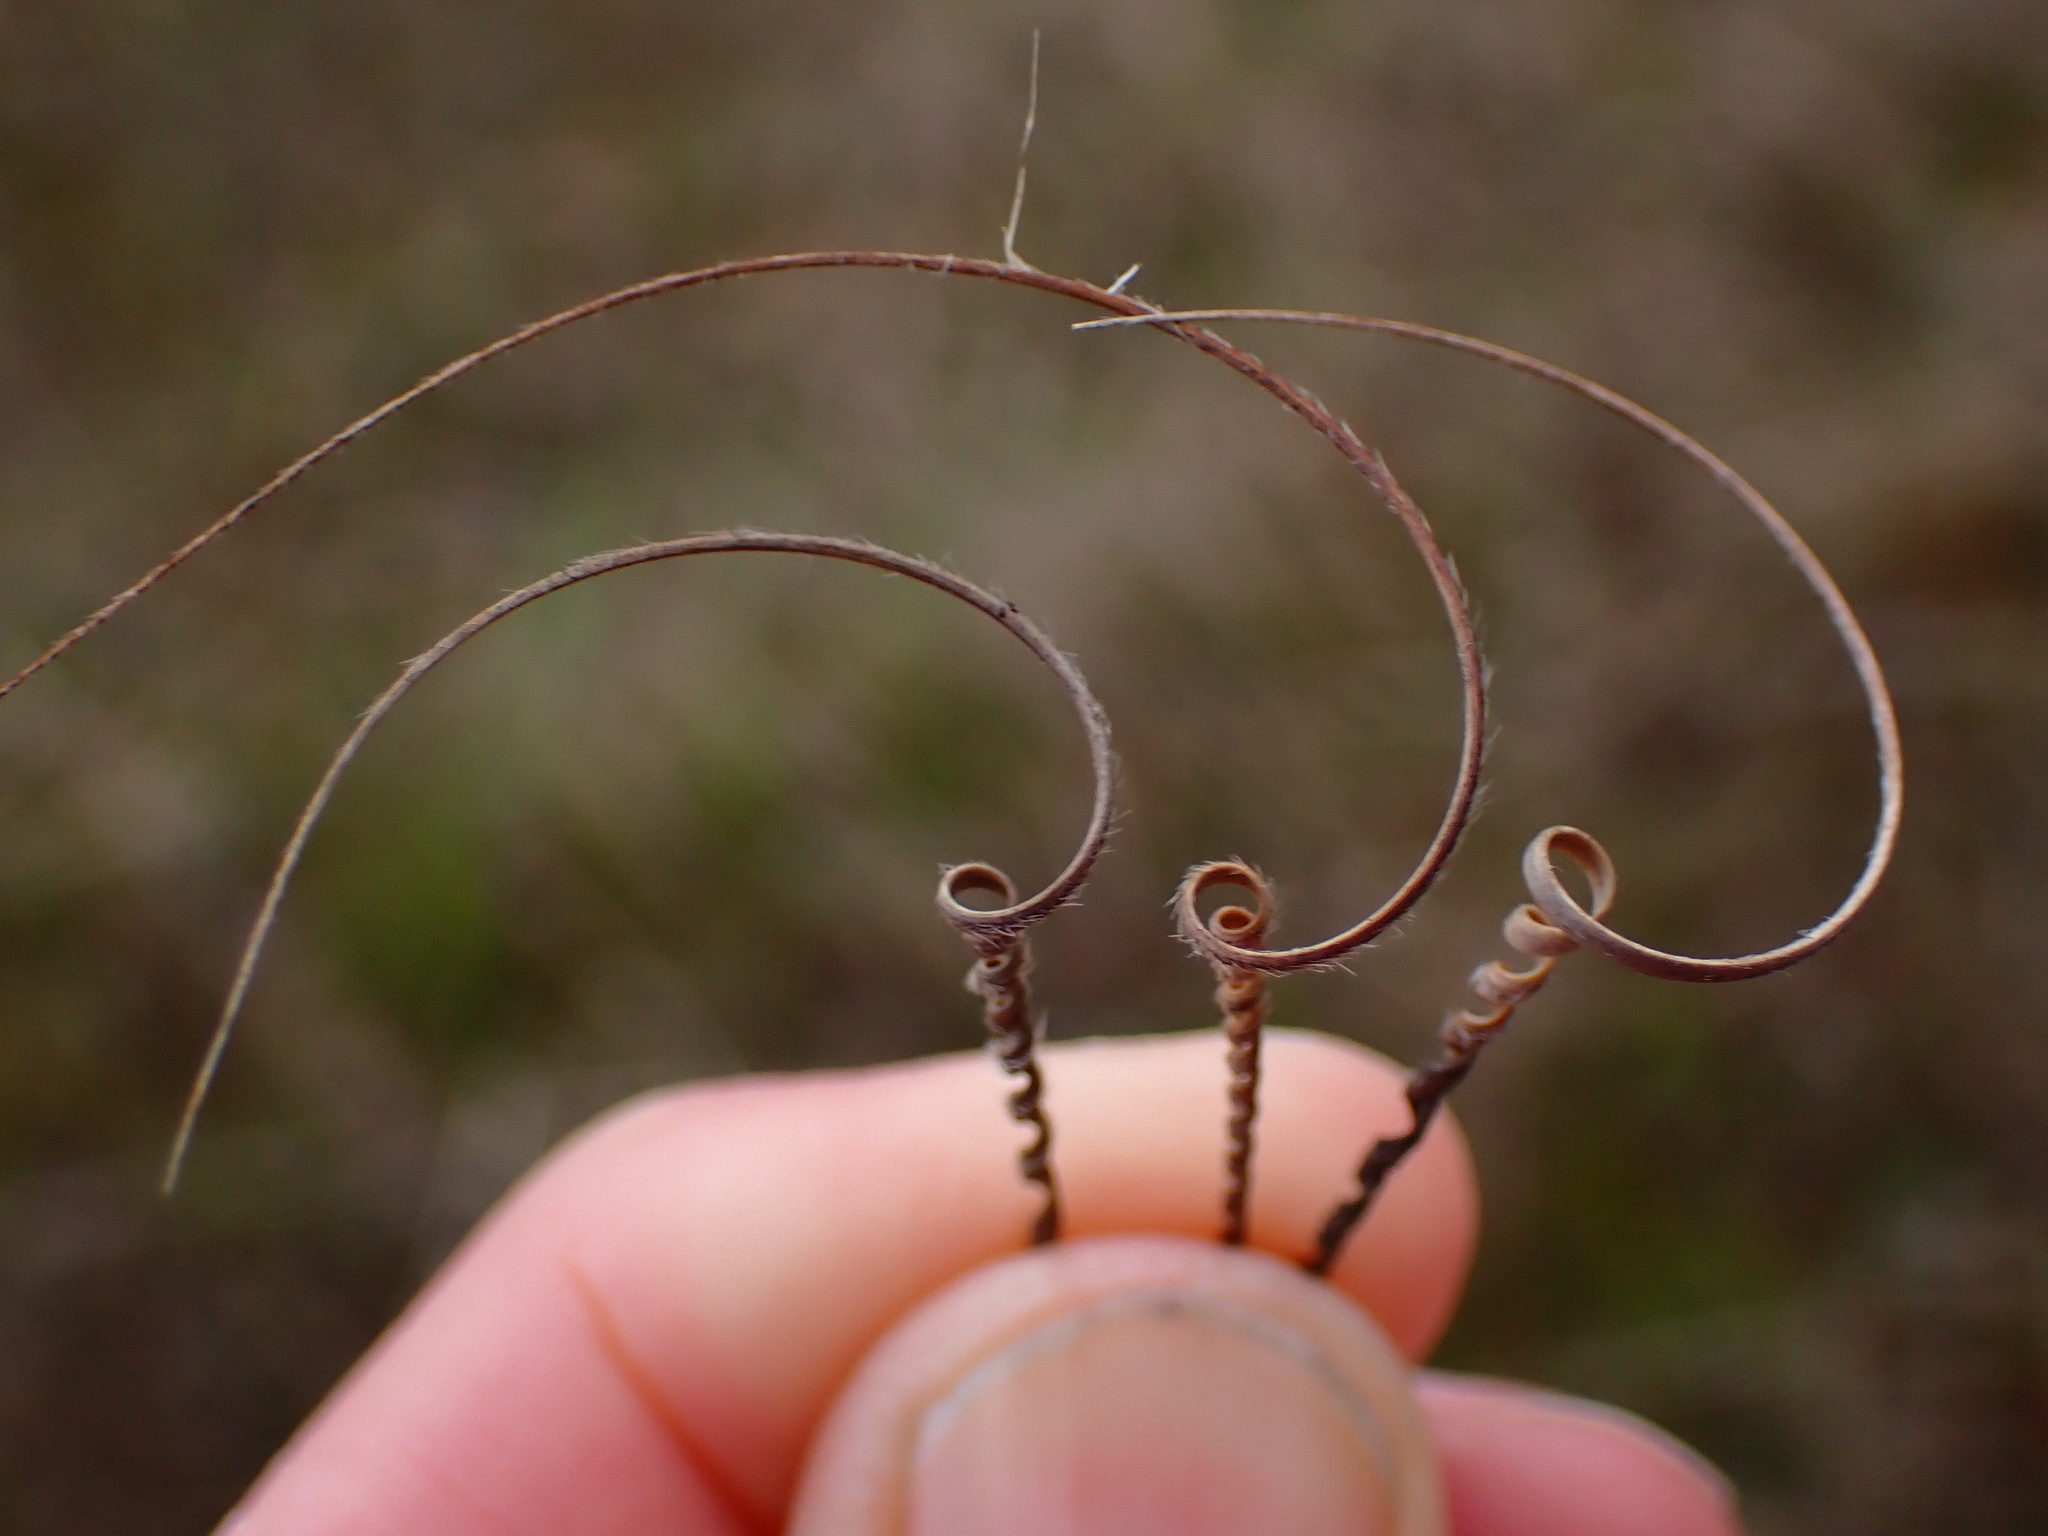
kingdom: Plantae
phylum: Tracheophyta
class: Magnoliopsida
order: Geraniales
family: Geraniaceae
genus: Erodium
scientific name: Erodium
